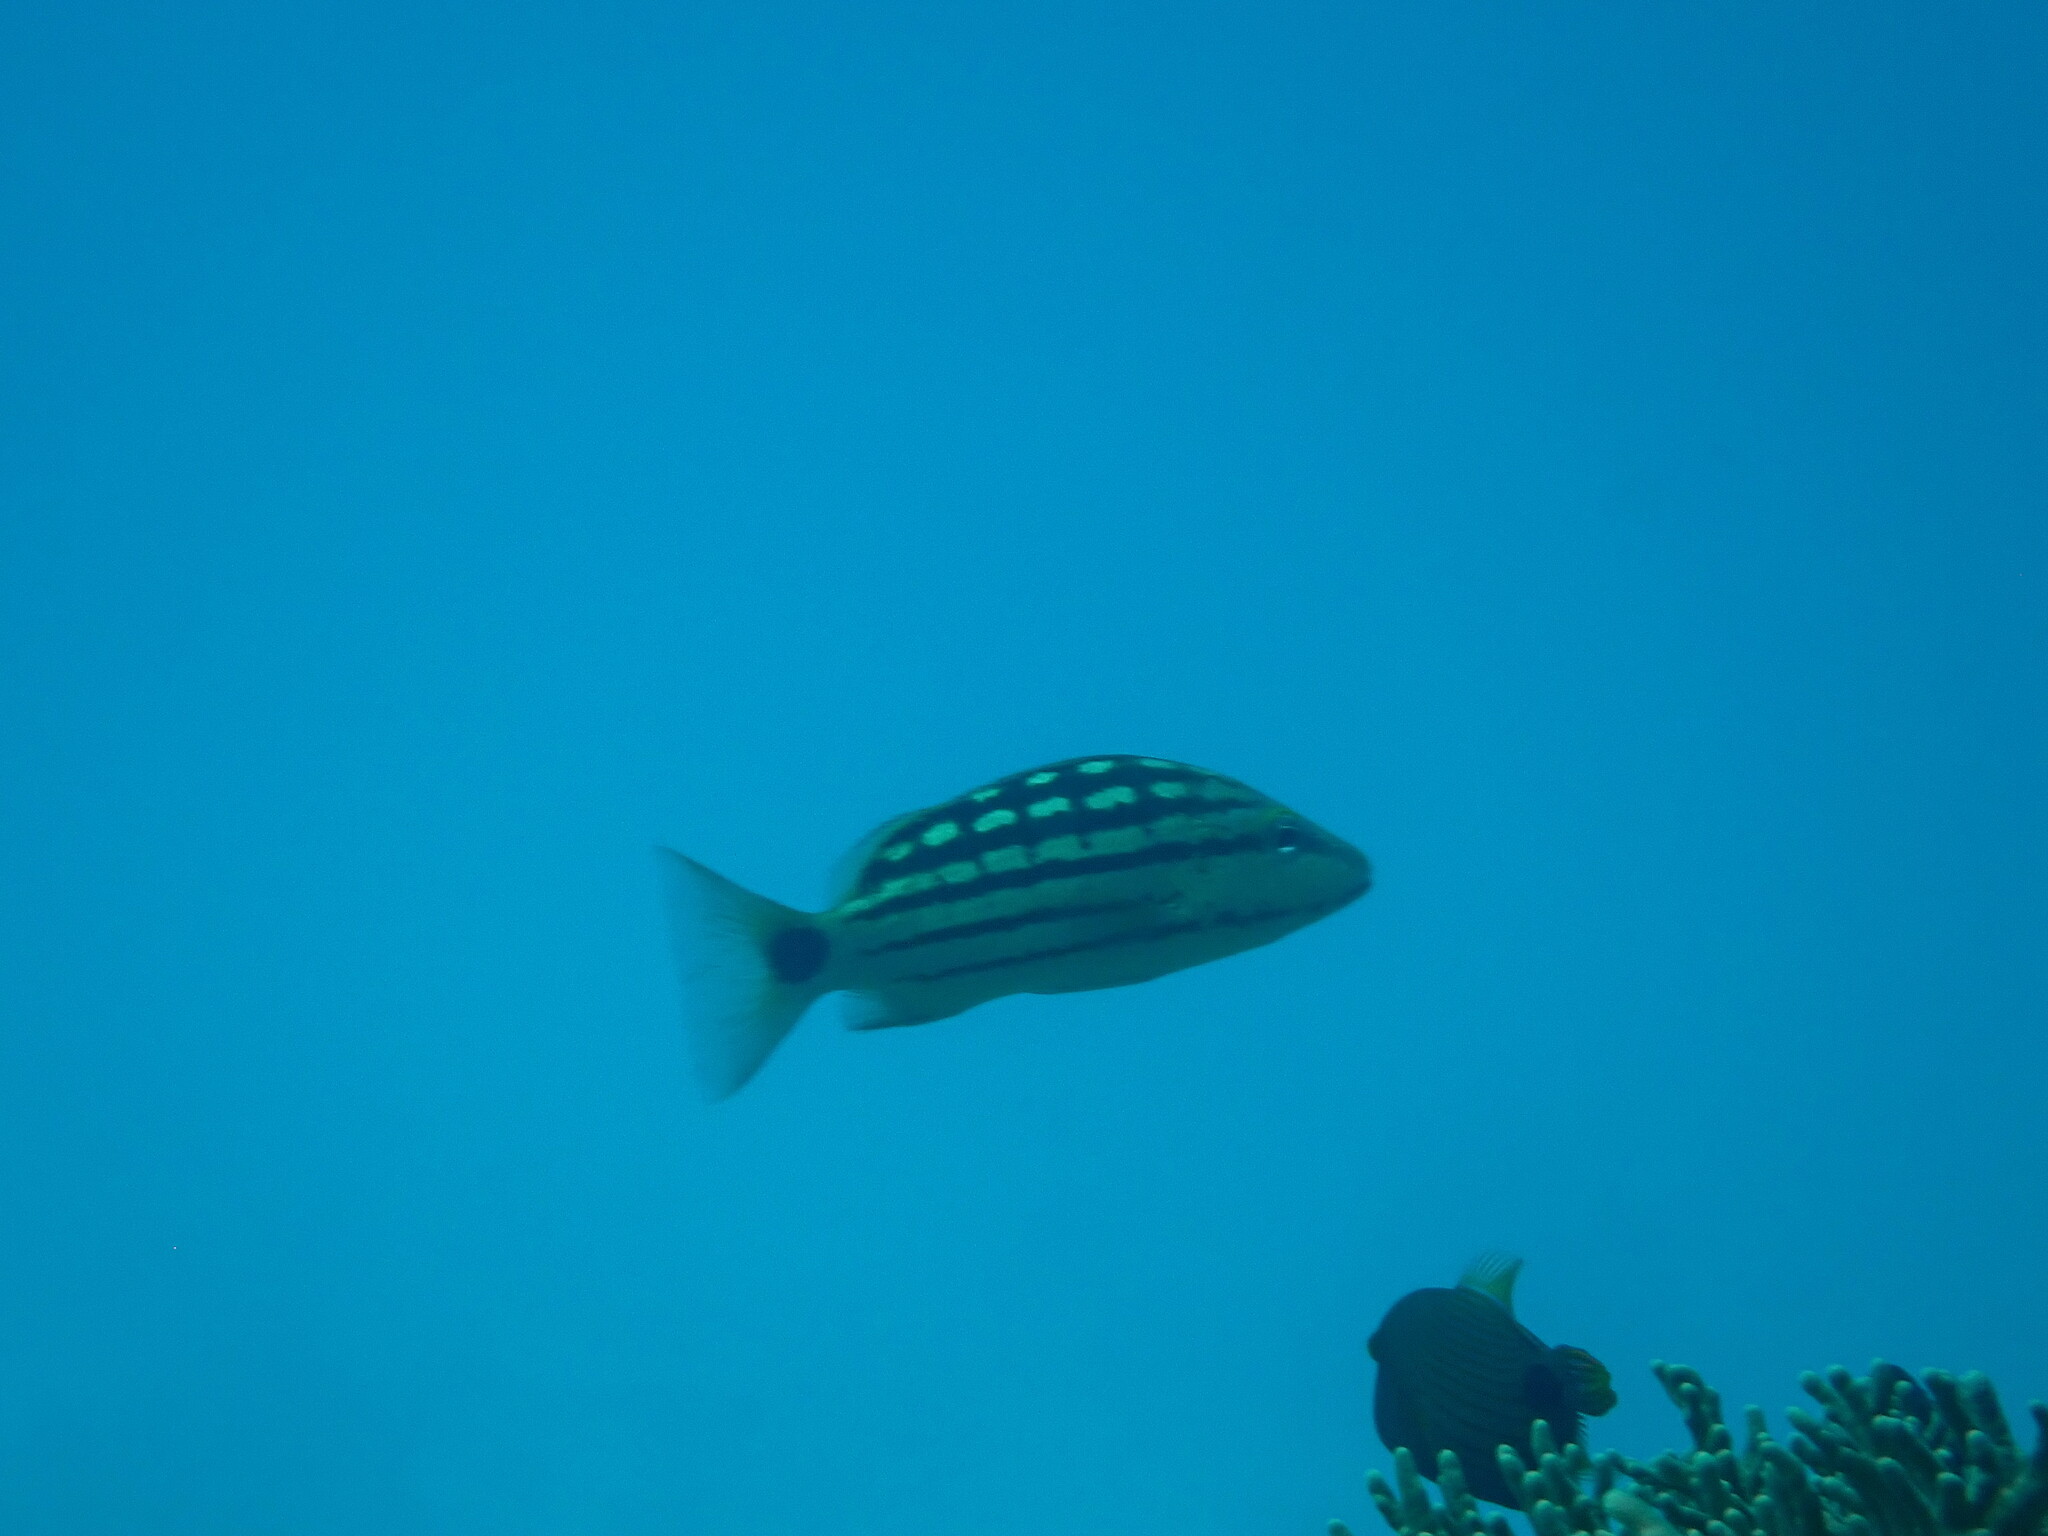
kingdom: Animalia
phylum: Chordata
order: Perciformes
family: Lutjanidae
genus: Lutjanus
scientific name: Lutjanus decussatus
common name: Checkered snapper
